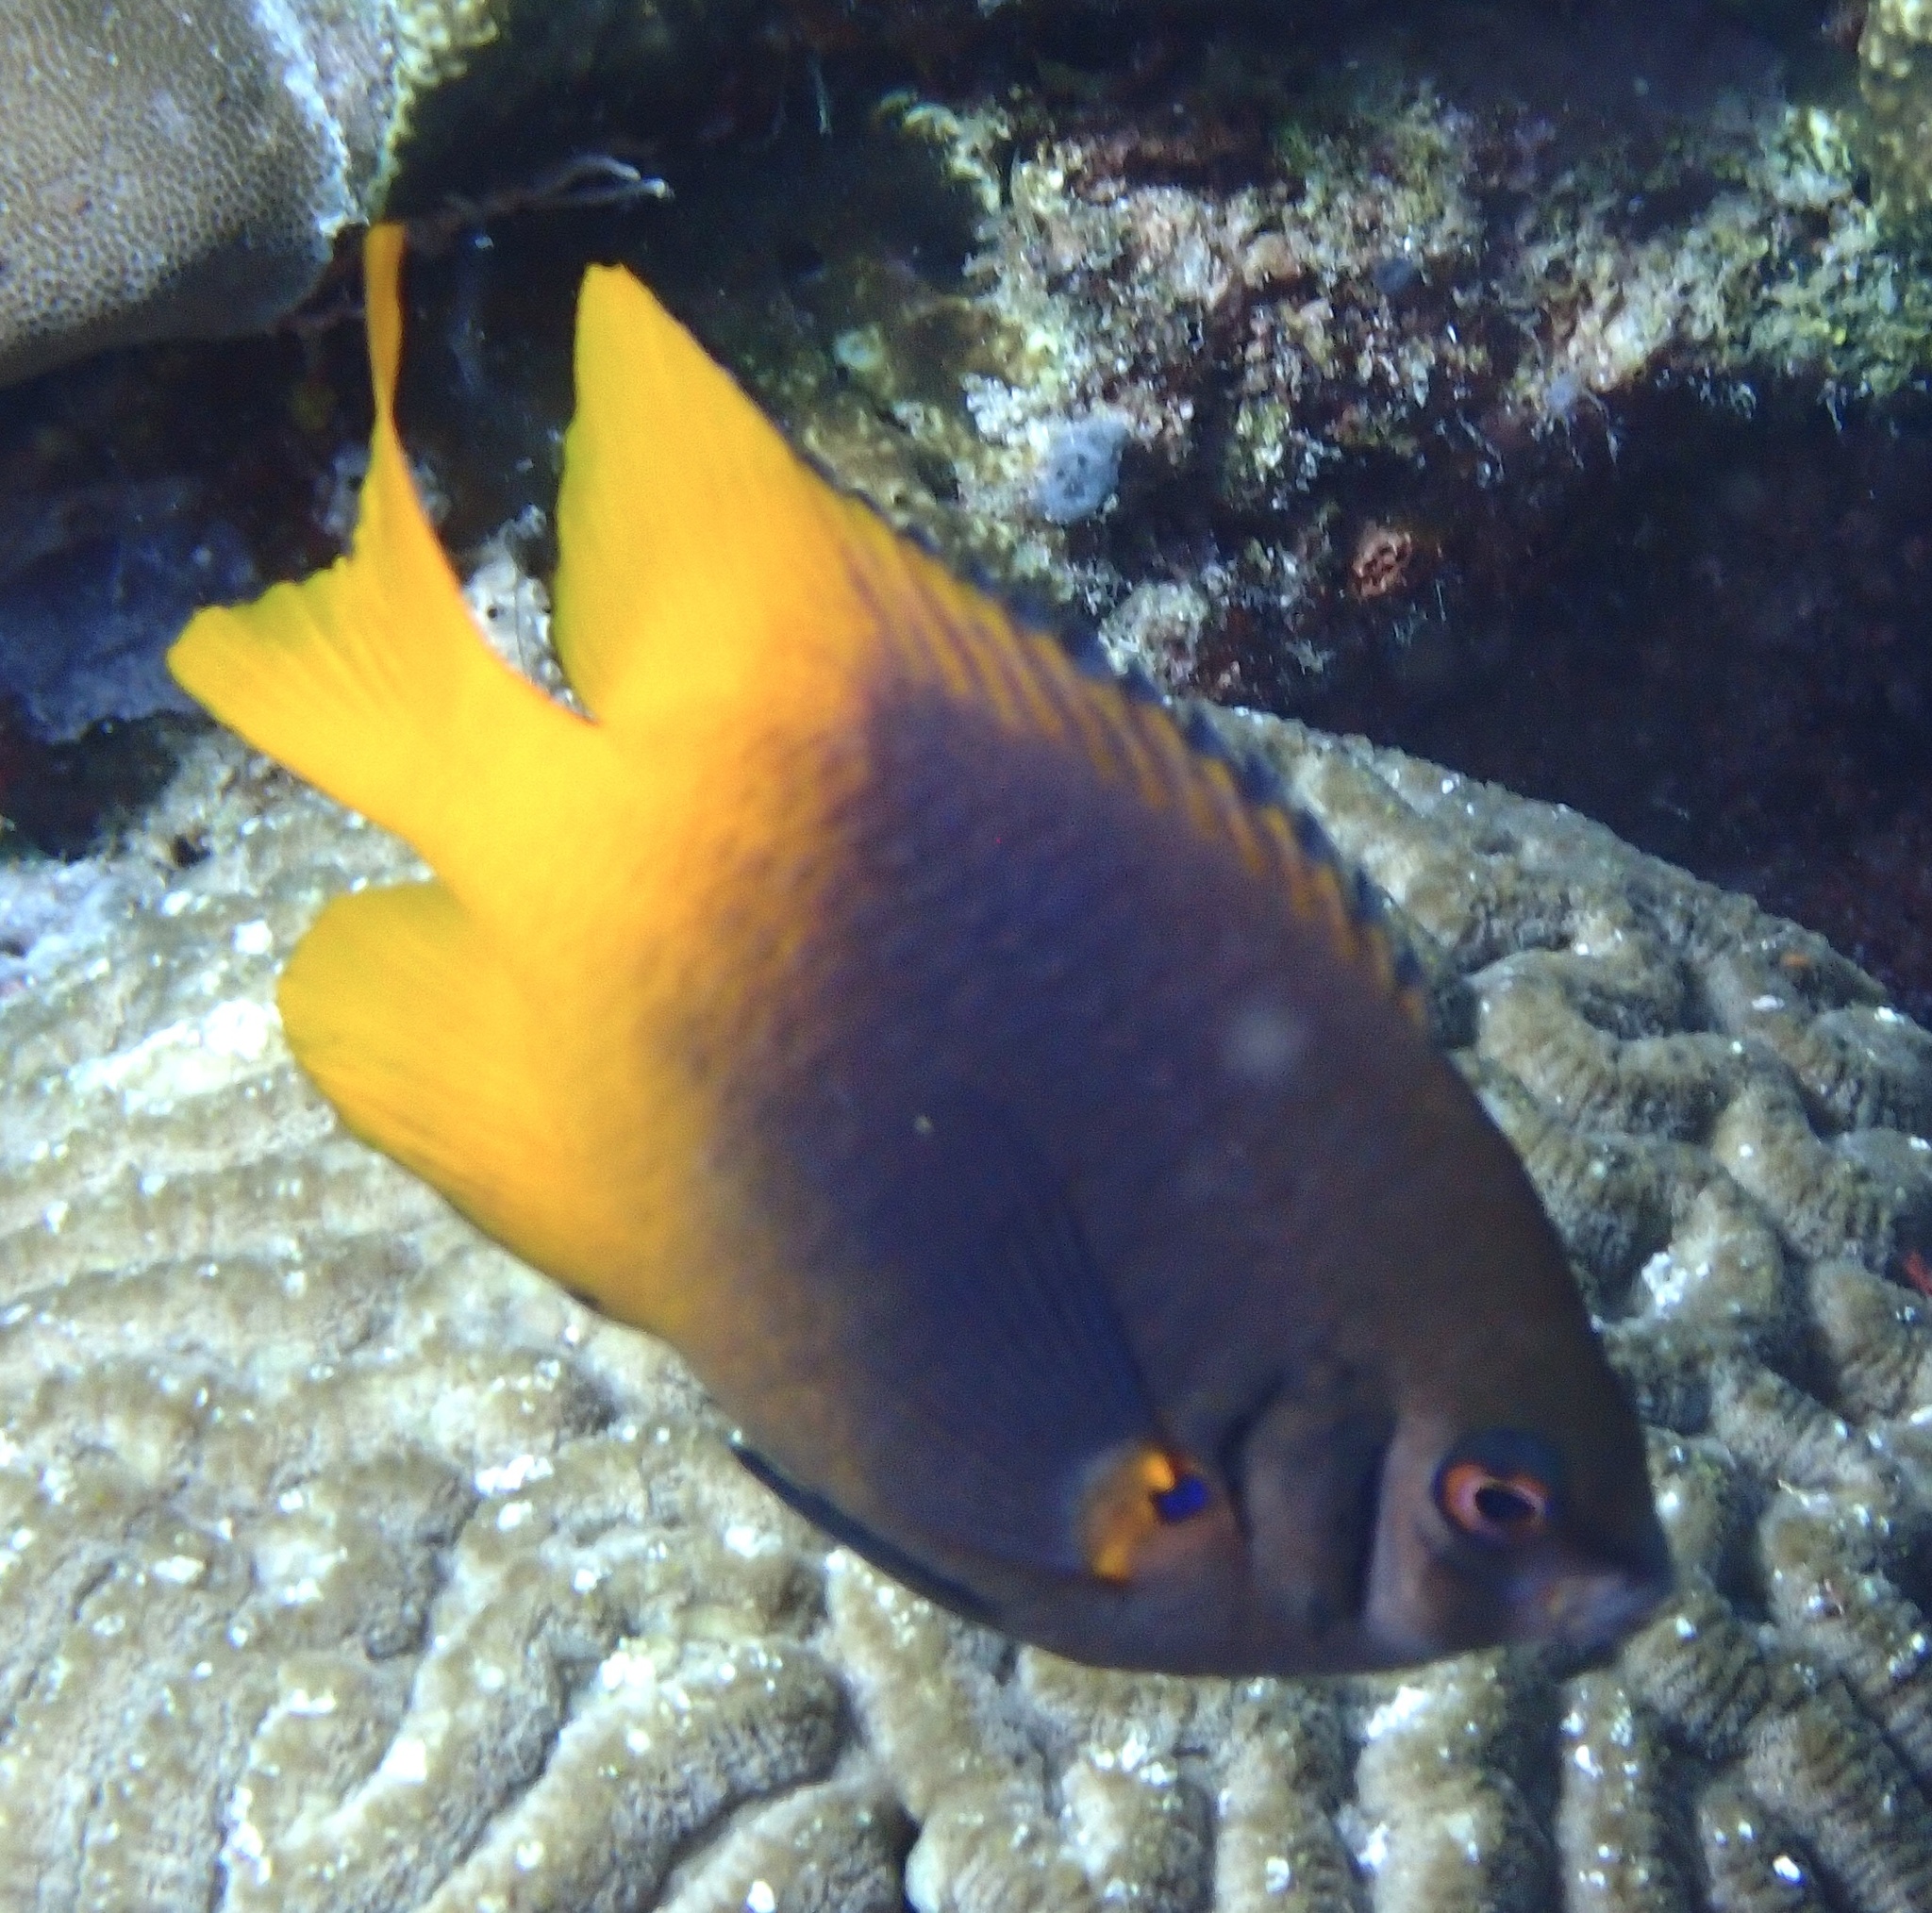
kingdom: Animalia
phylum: Chordata
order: Perciformes
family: Pomacentridae
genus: Neoglyphidodon
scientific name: Neoglyphidodon nigroris
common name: Behn's damsel
